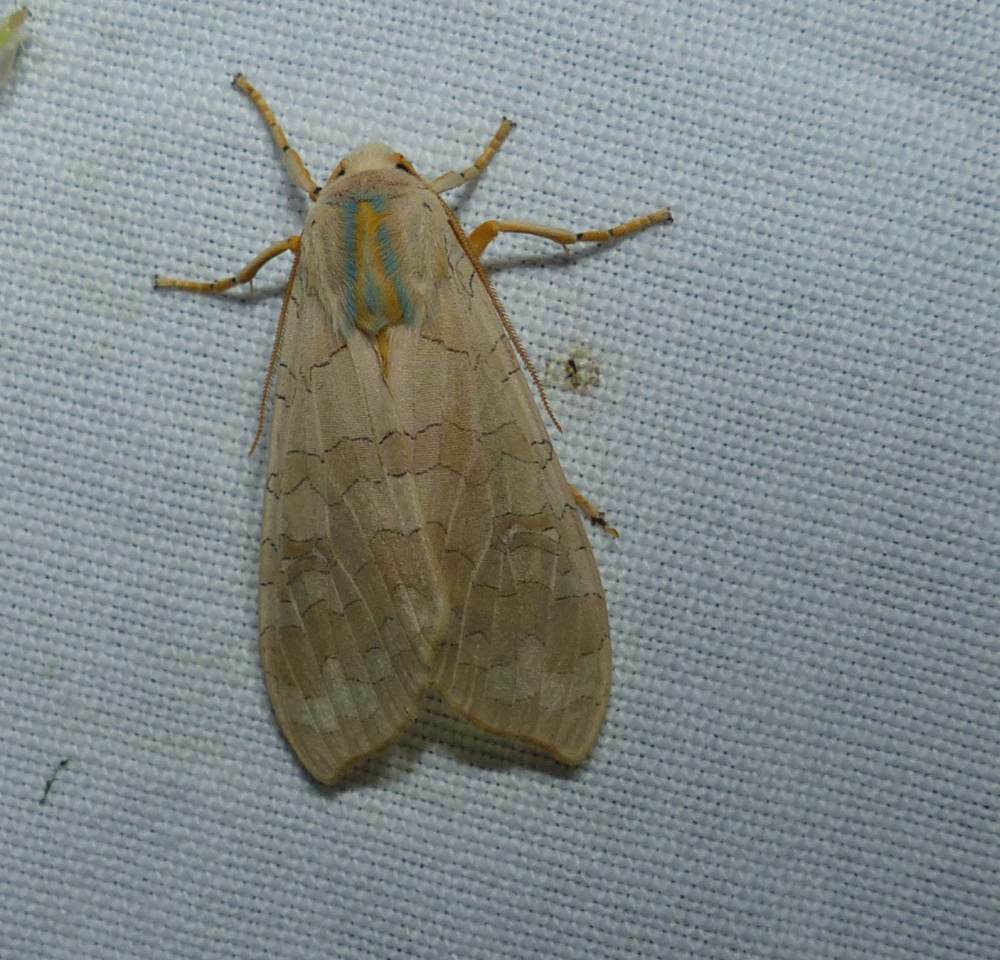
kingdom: Animalia
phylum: Arthropoda
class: Insecta
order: Lepidoptera
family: Erebidae
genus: Halysidota
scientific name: Halysidota tessellaris
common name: Banded tussock moth
